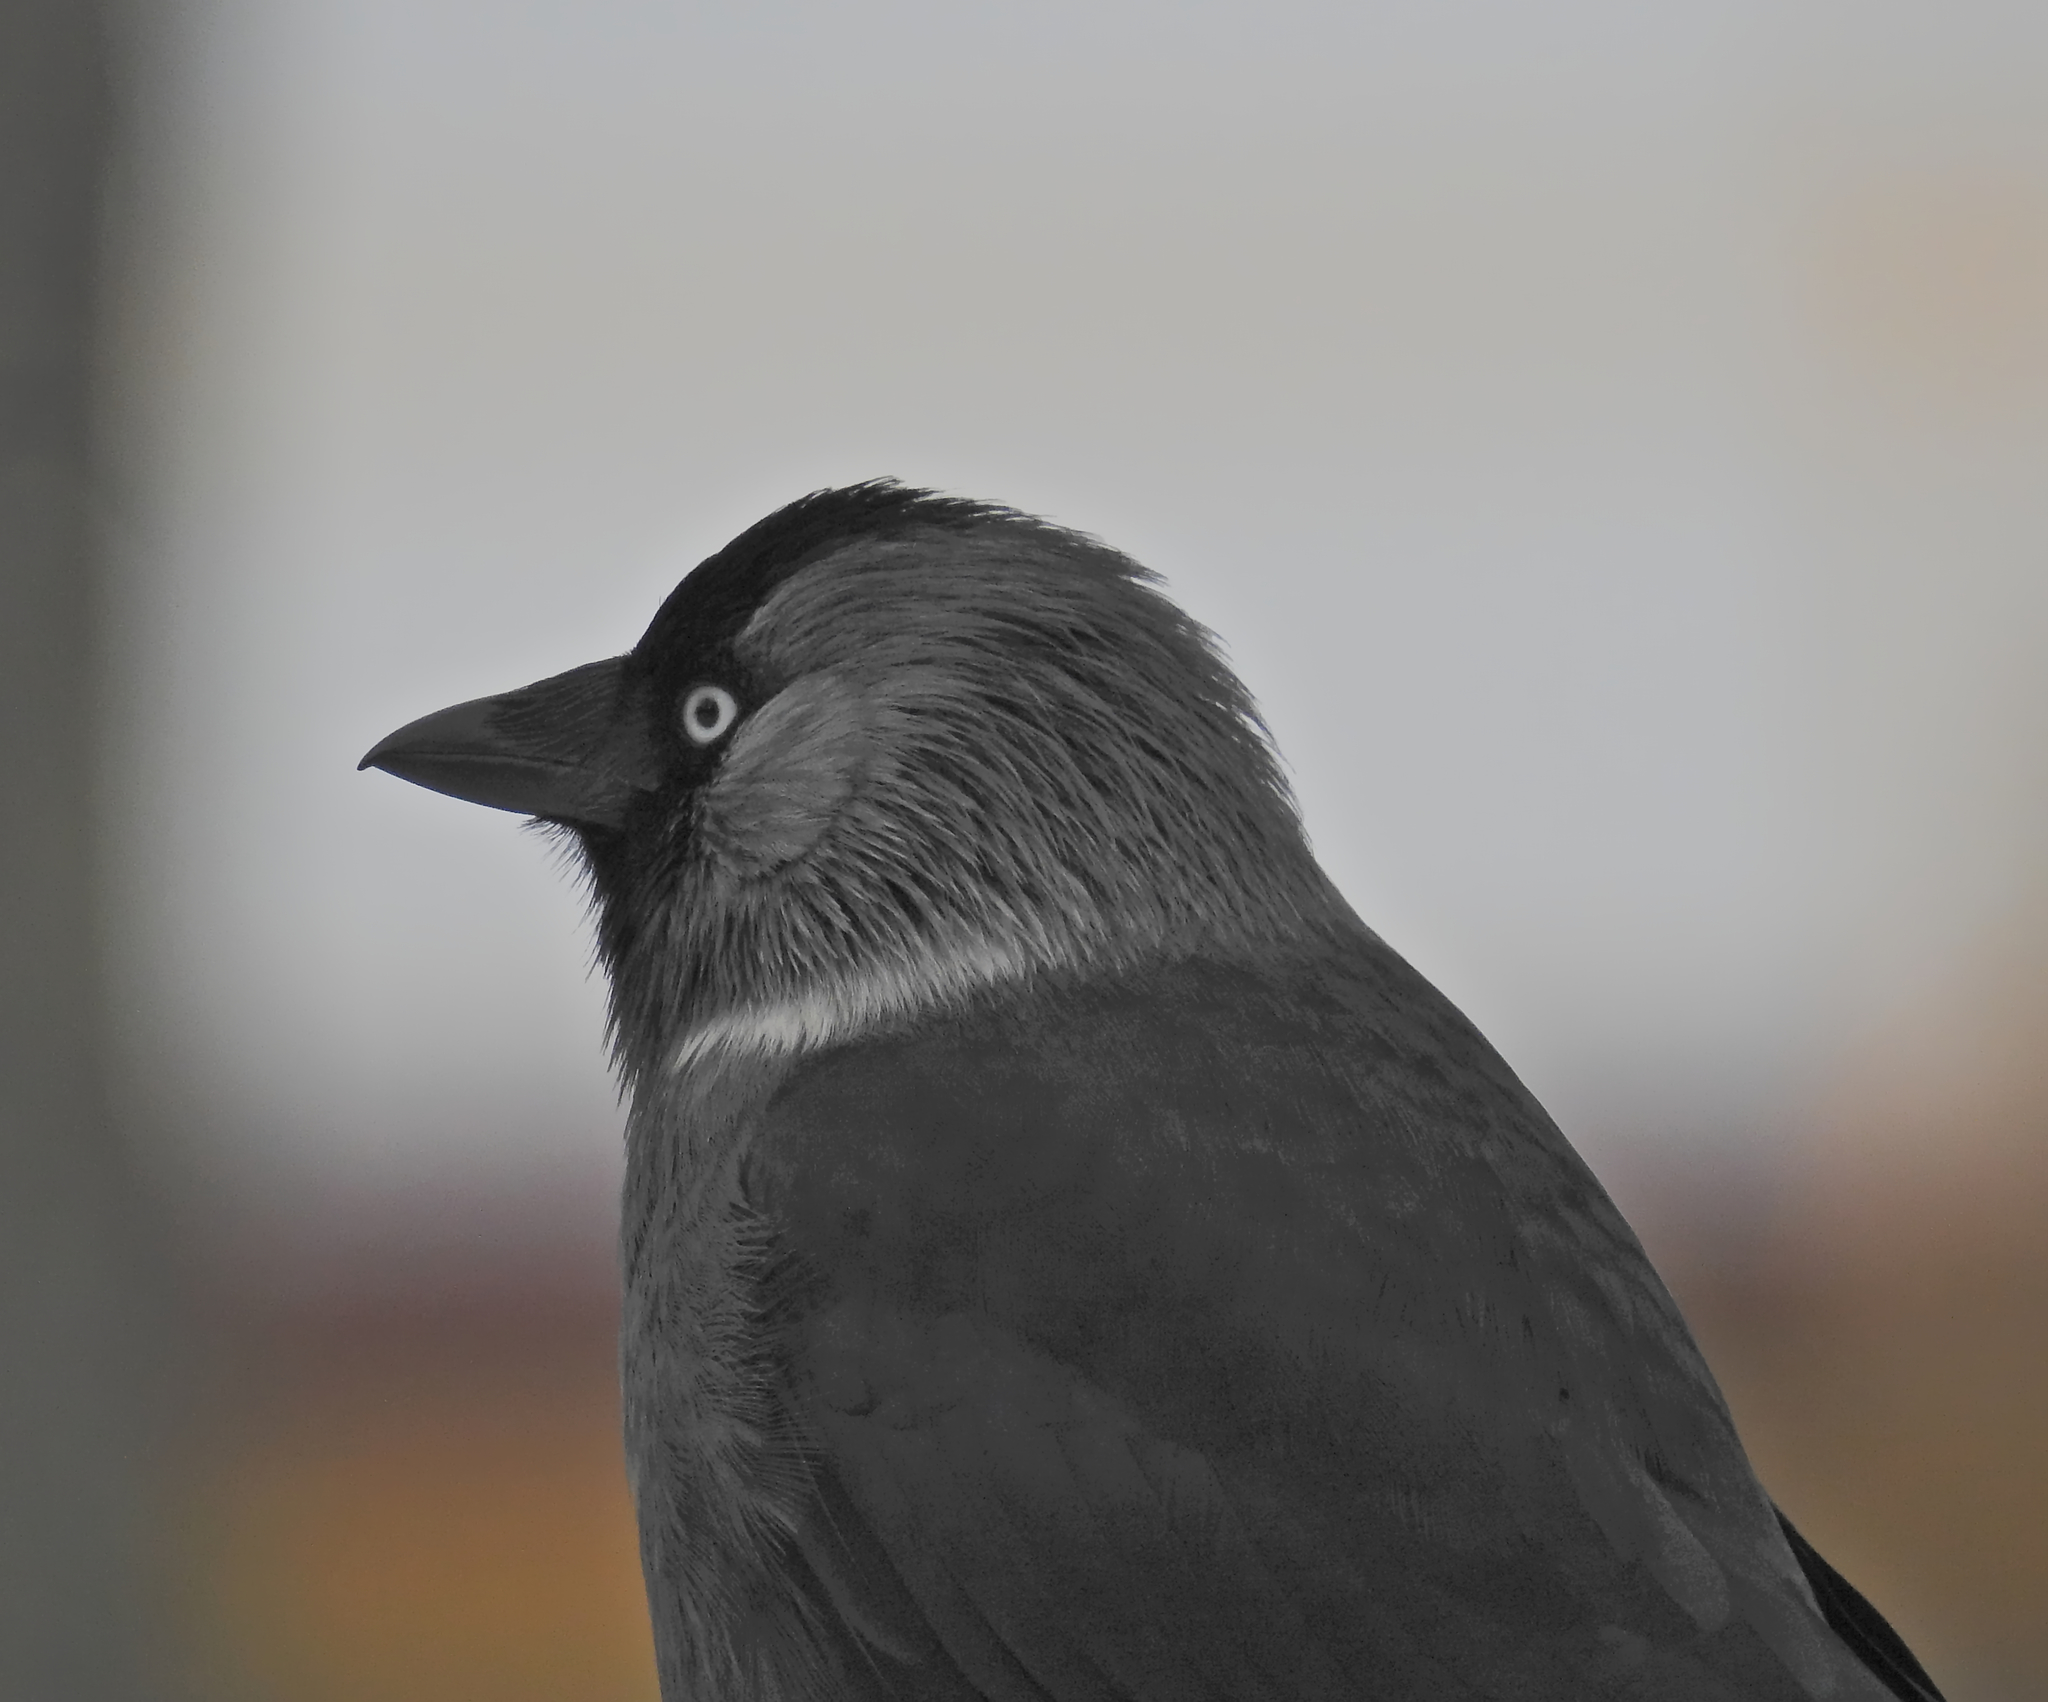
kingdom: Animalia
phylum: Chordata
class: Aves
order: Passeriformes
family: Corvidae
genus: Coloeus
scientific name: Coloeus monedula
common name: Western jackdaw
